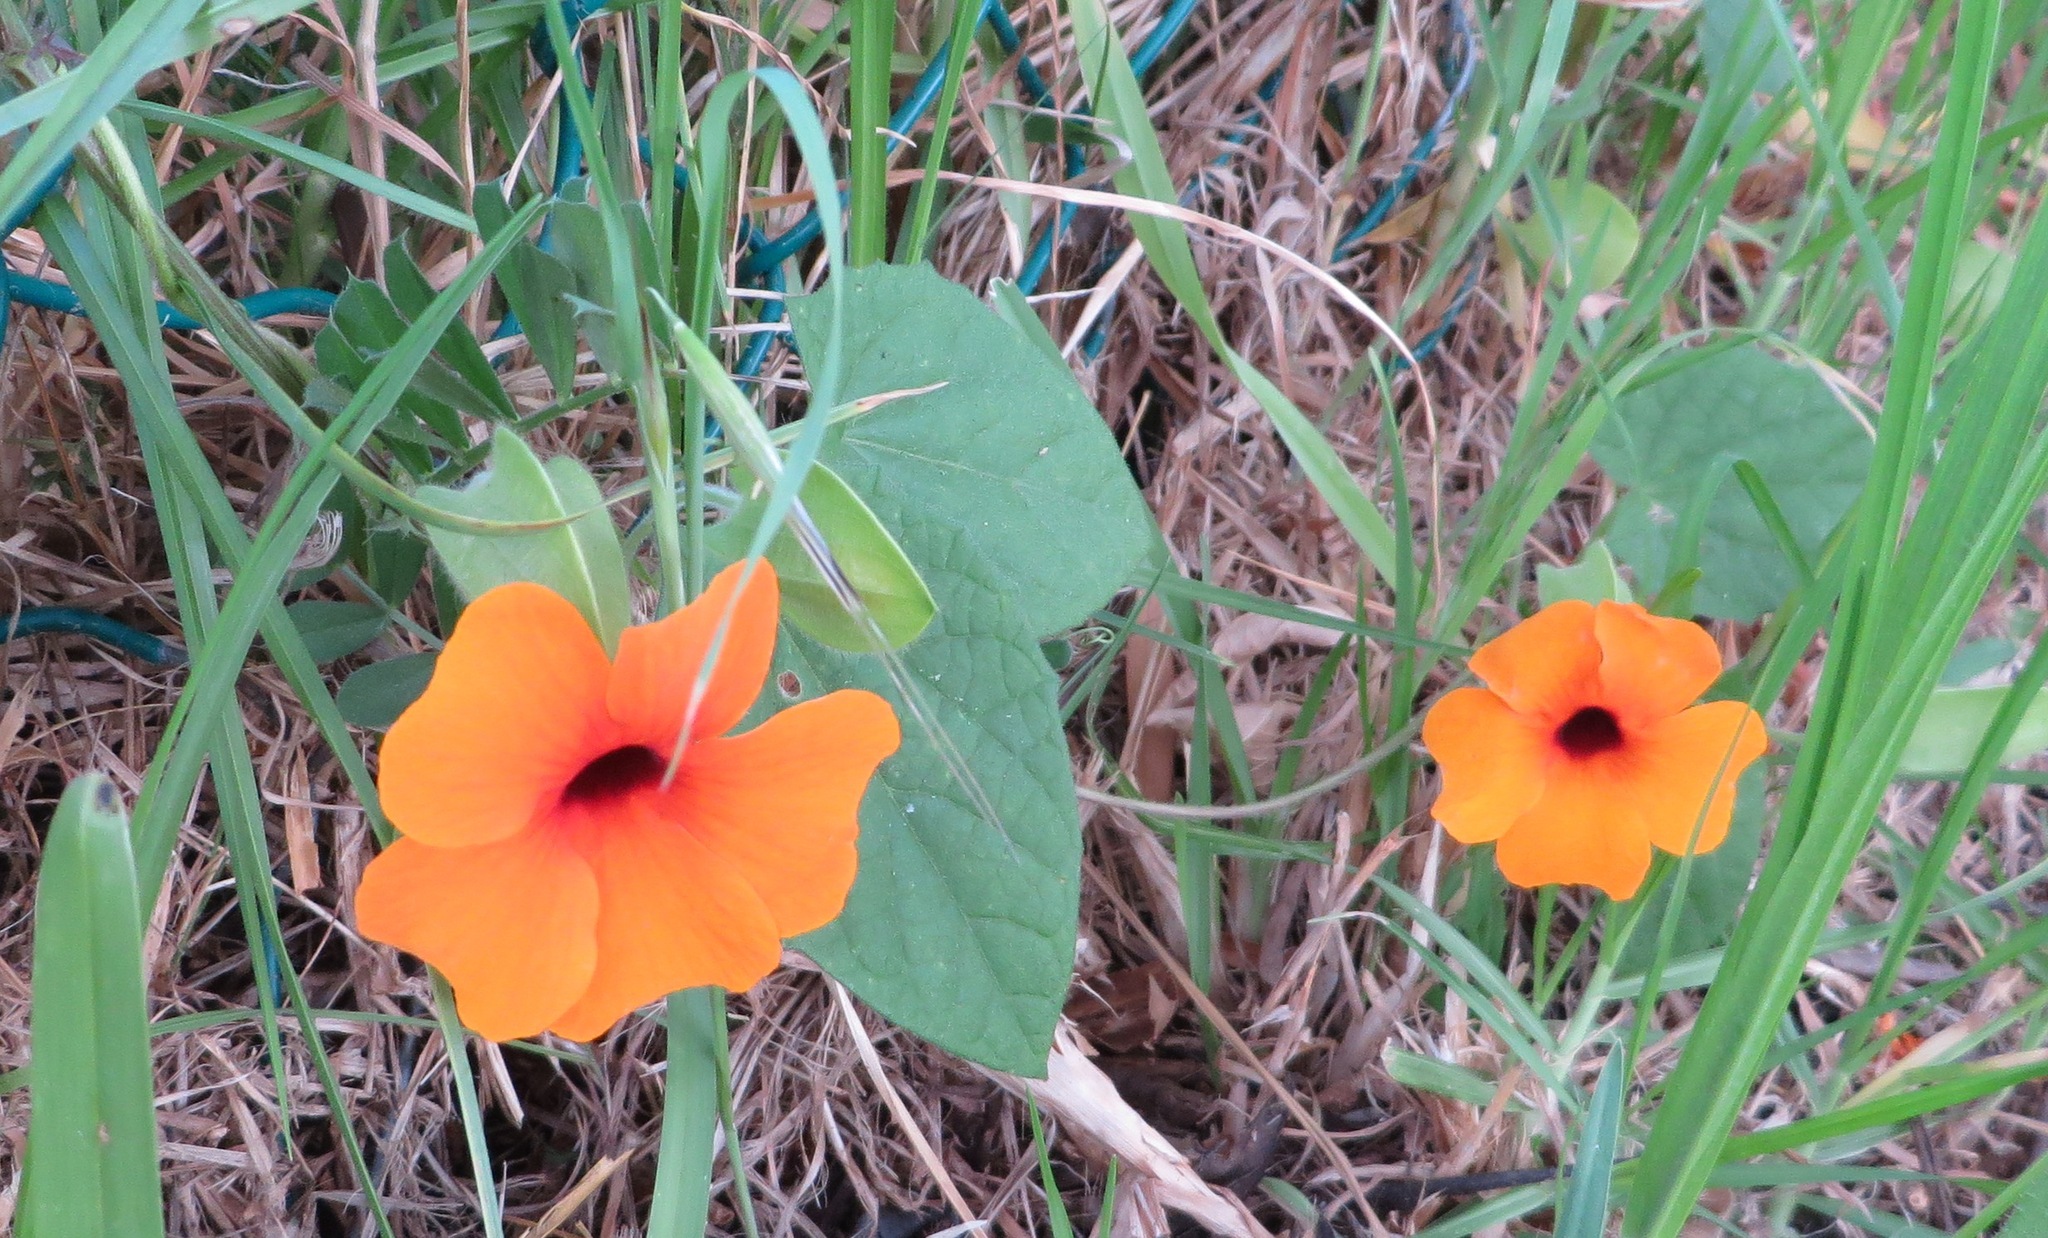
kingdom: Plantae
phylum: Tracheophyta
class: Magnoliopsida
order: Lamiales
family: Acanthaceae
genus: Thunbergia
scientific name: Thunbergia alata
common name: Blackeyed susan vine
